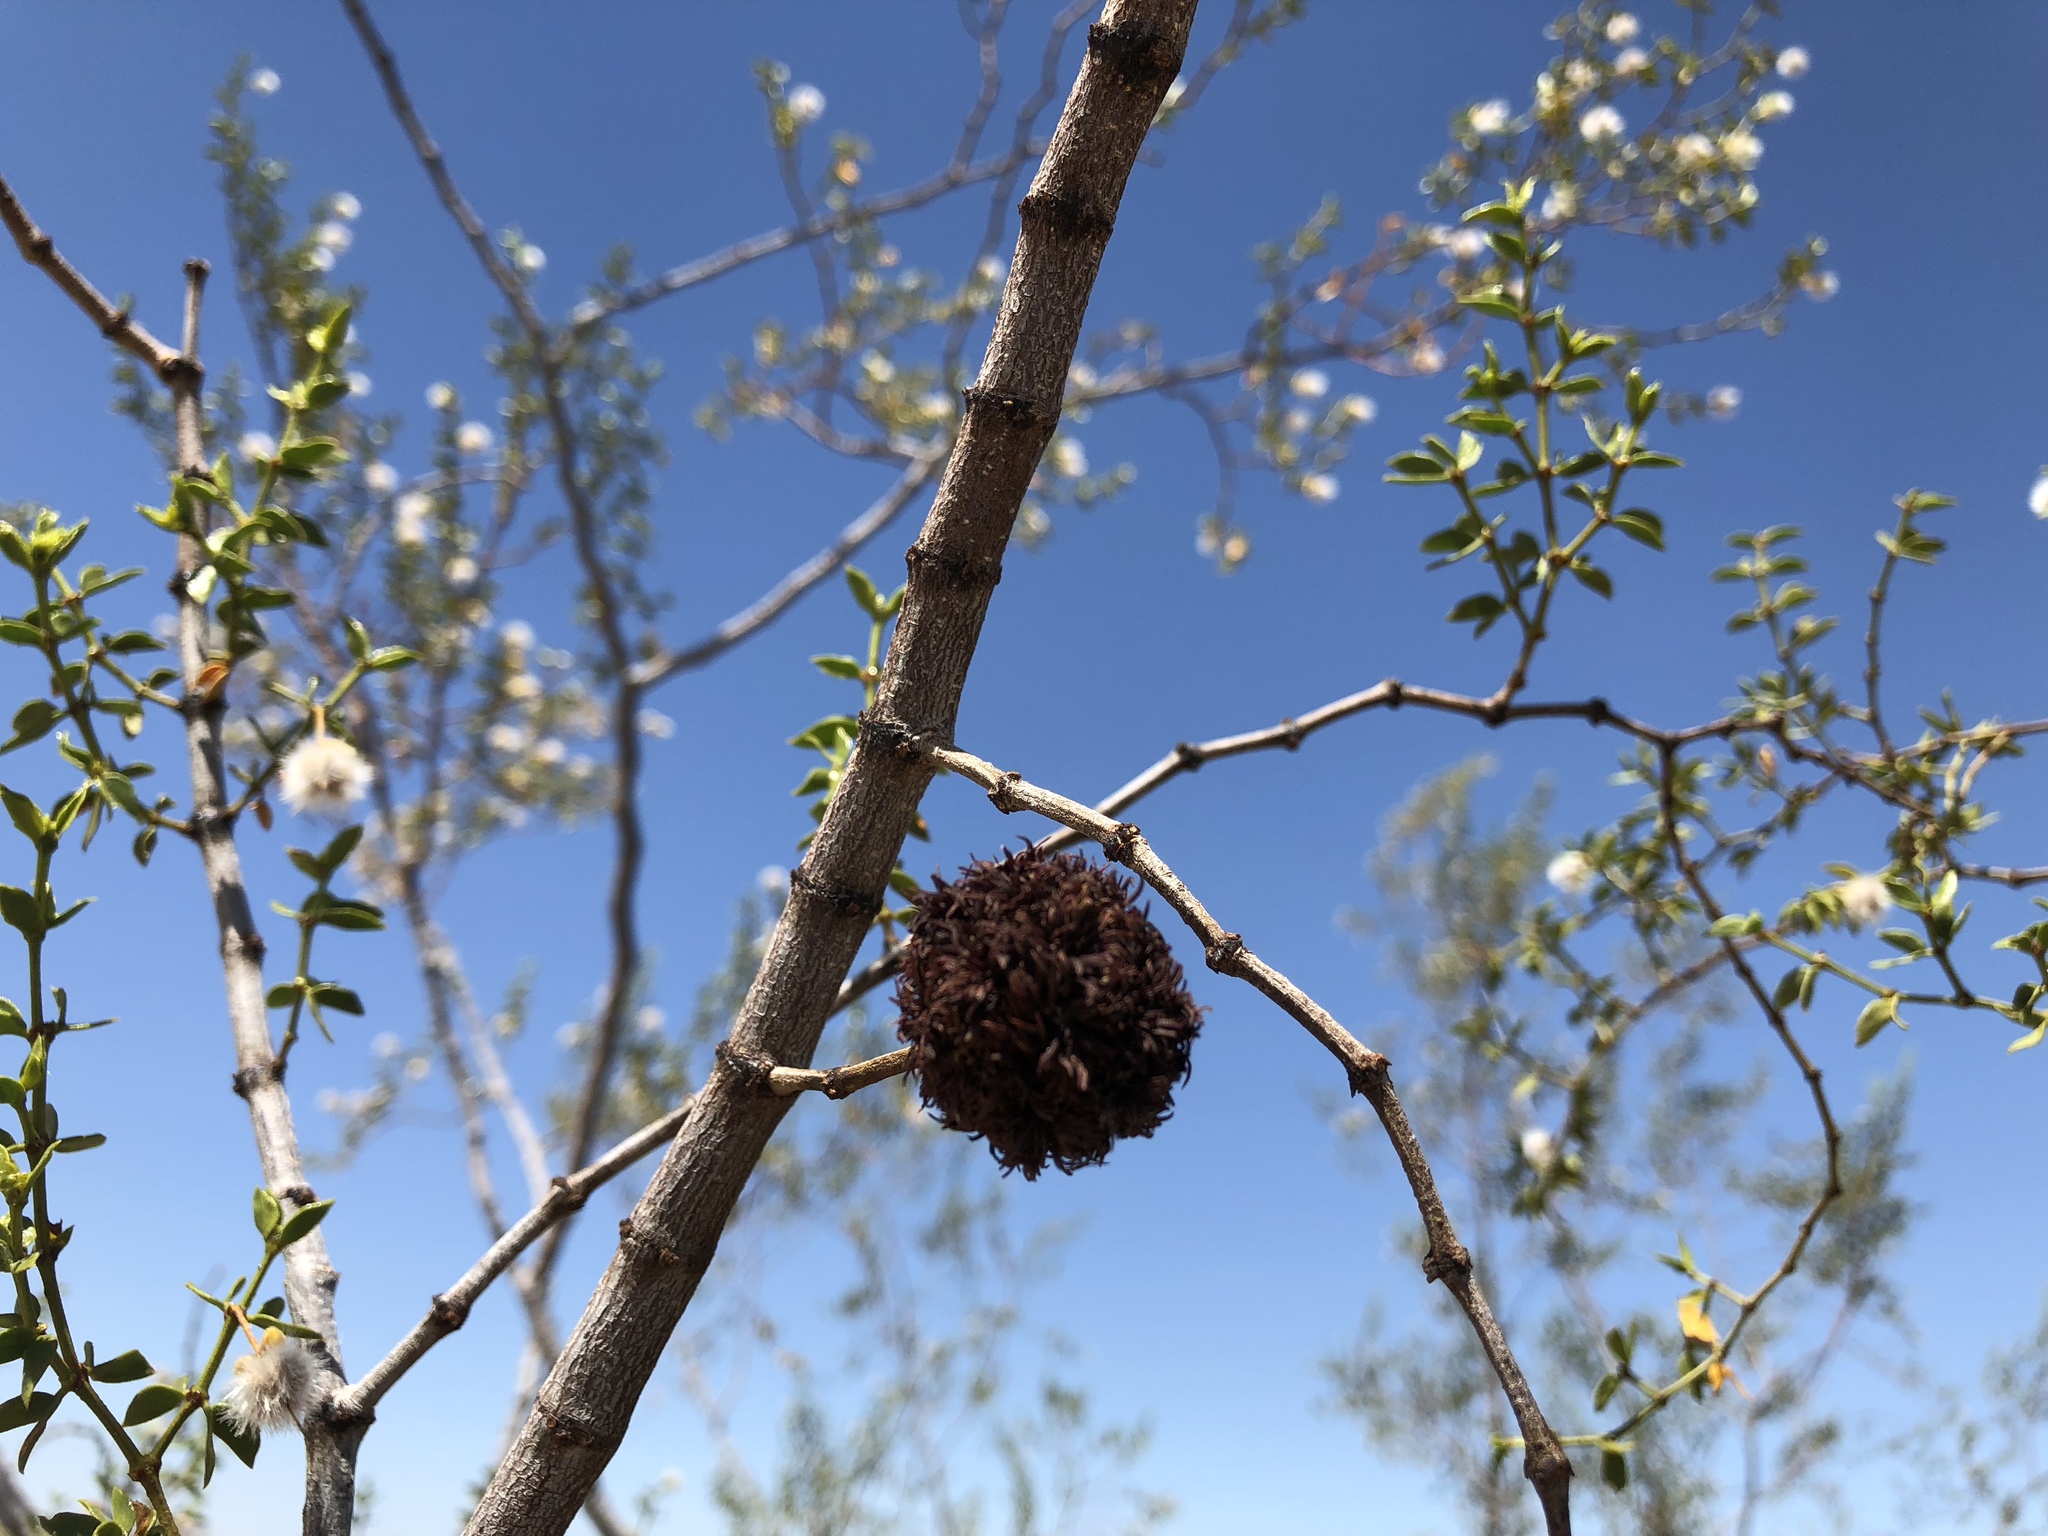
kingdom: Animalia
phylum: Arthropoda
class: Insecta
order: Diptera
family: Cecidomyiidae
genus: Asphondylia
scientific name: Asphondylia auripila
